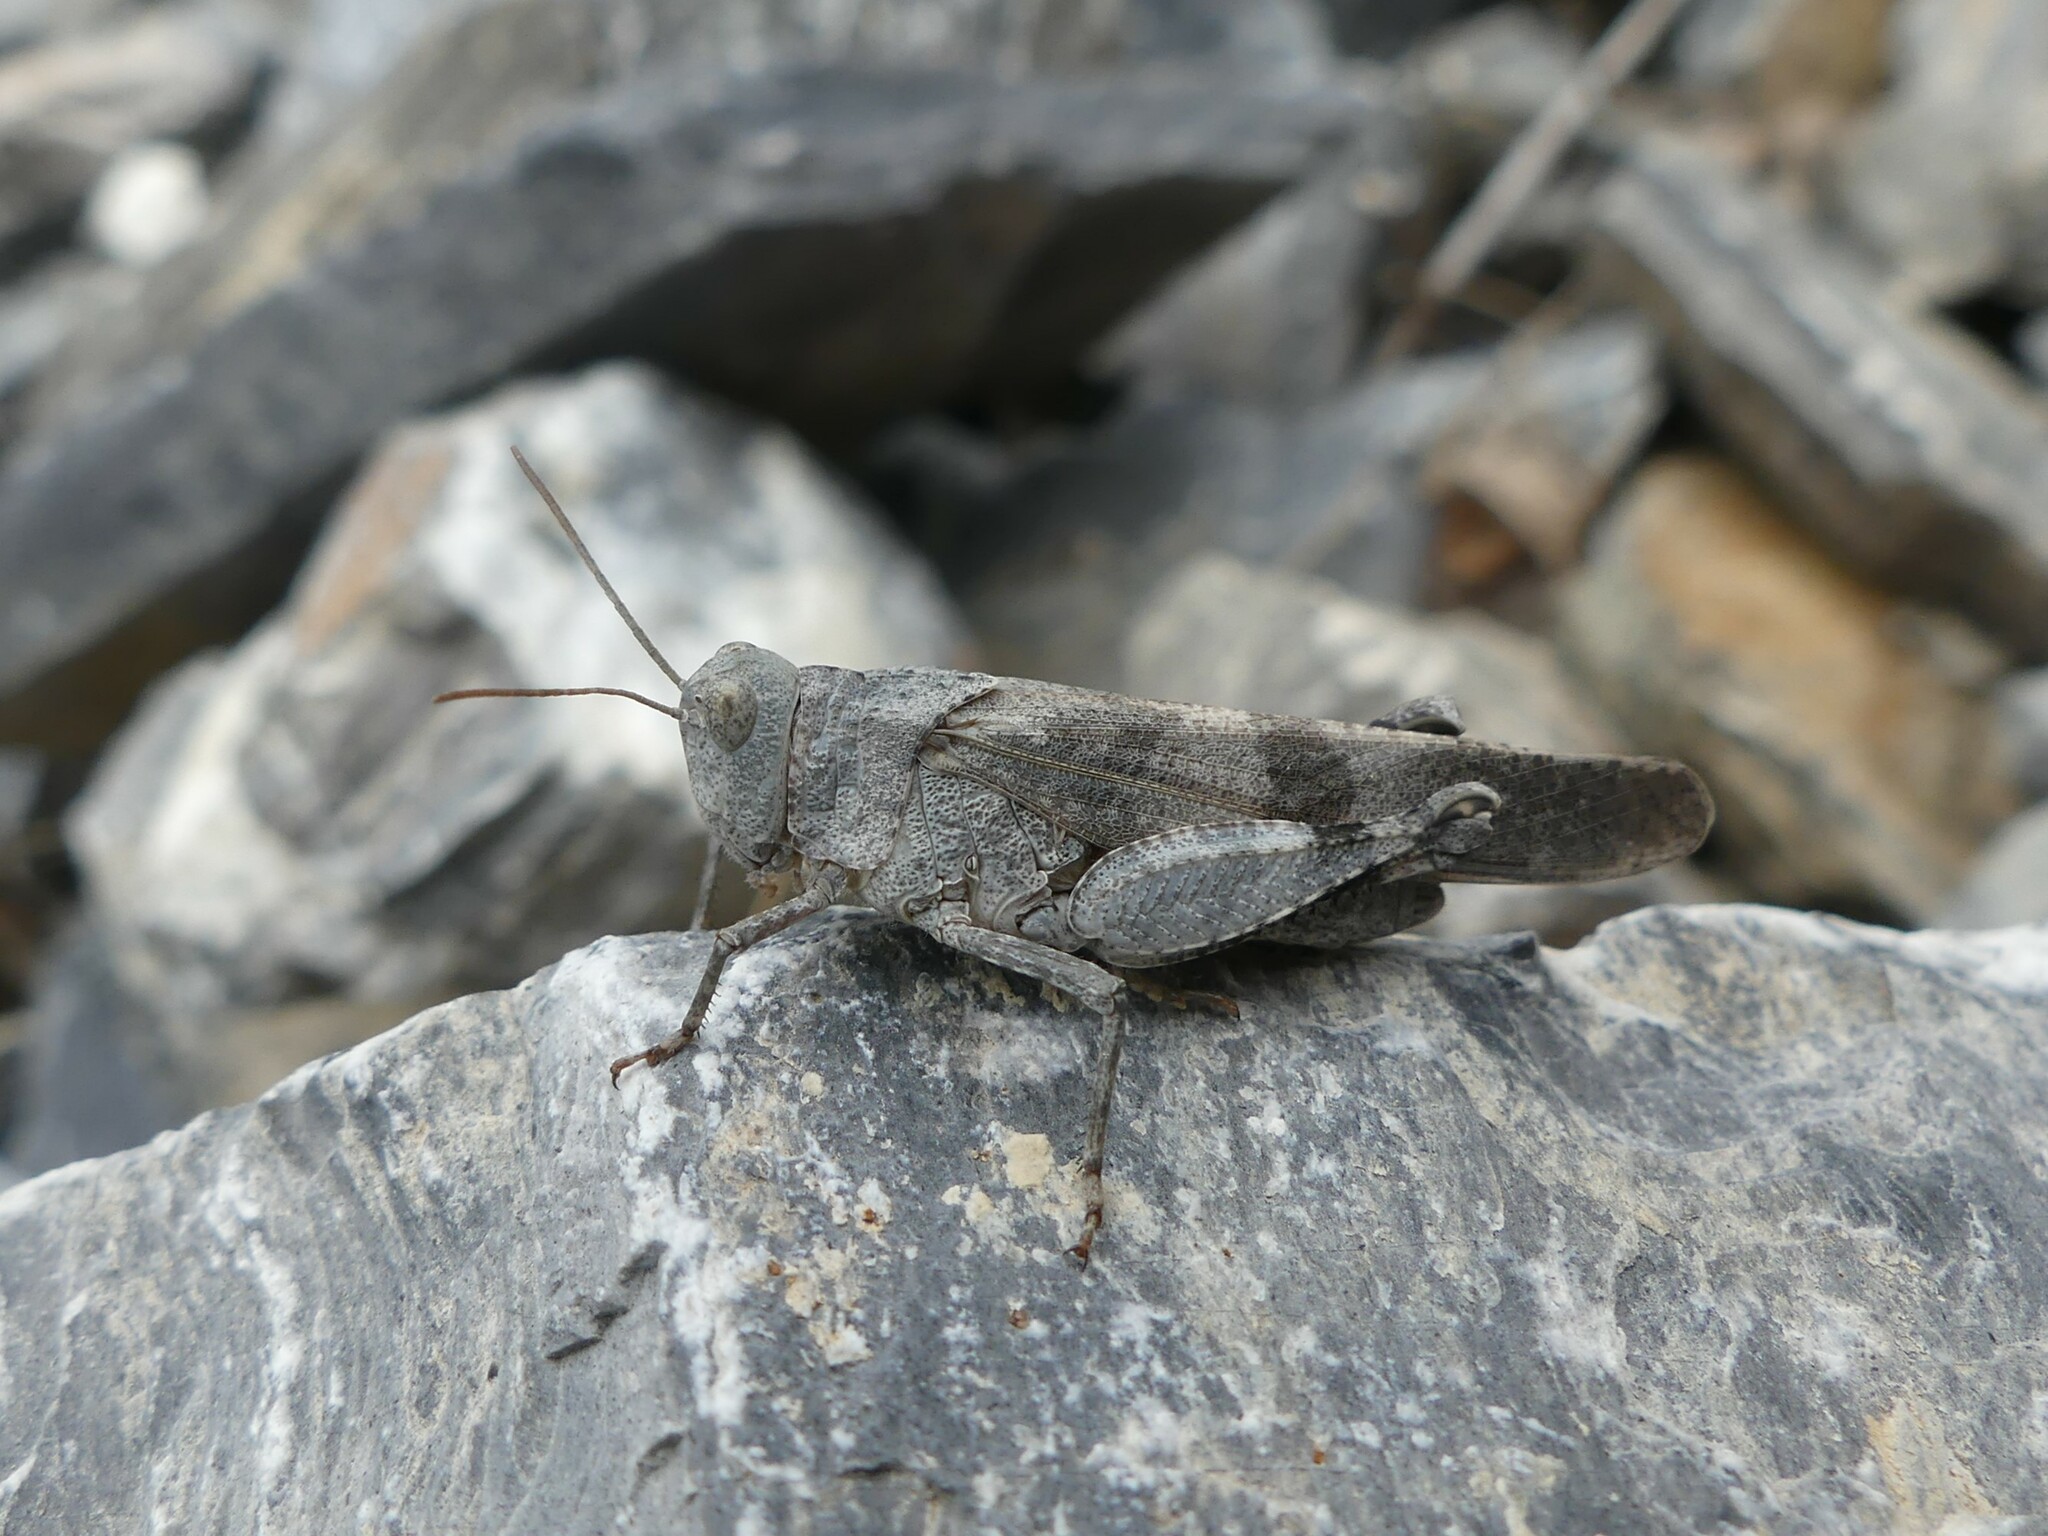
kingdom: Animalia
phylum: Arthropoda
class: Insecta
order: Orthoptera
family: Acrididae
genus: Oedipoda
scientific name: Oedipoda germanica
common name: Red band-winged grasshopper
